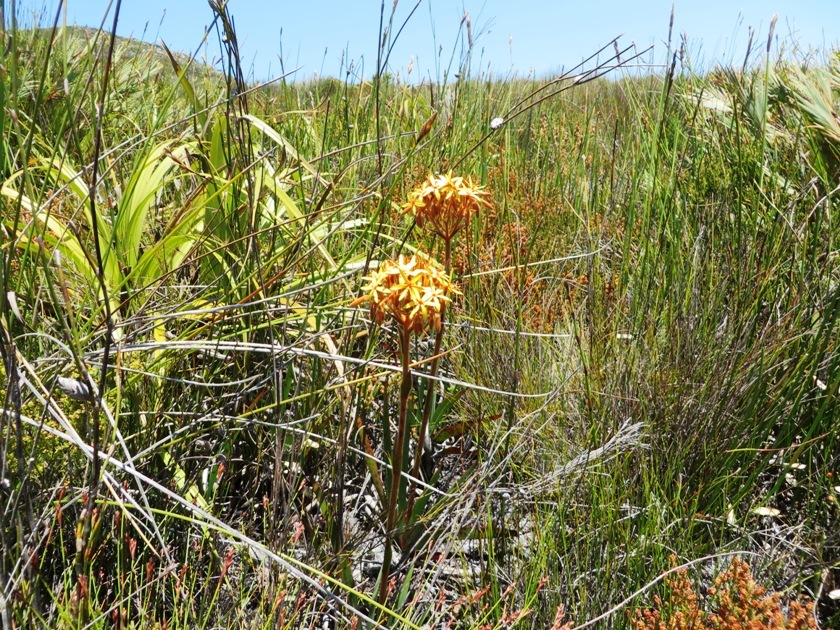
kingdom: Plantae
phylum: Tracheophyta
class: Liliopsida
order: Commelinales
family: Haemodoraceae
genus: Dilatris
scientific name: Dilatris viscosa
